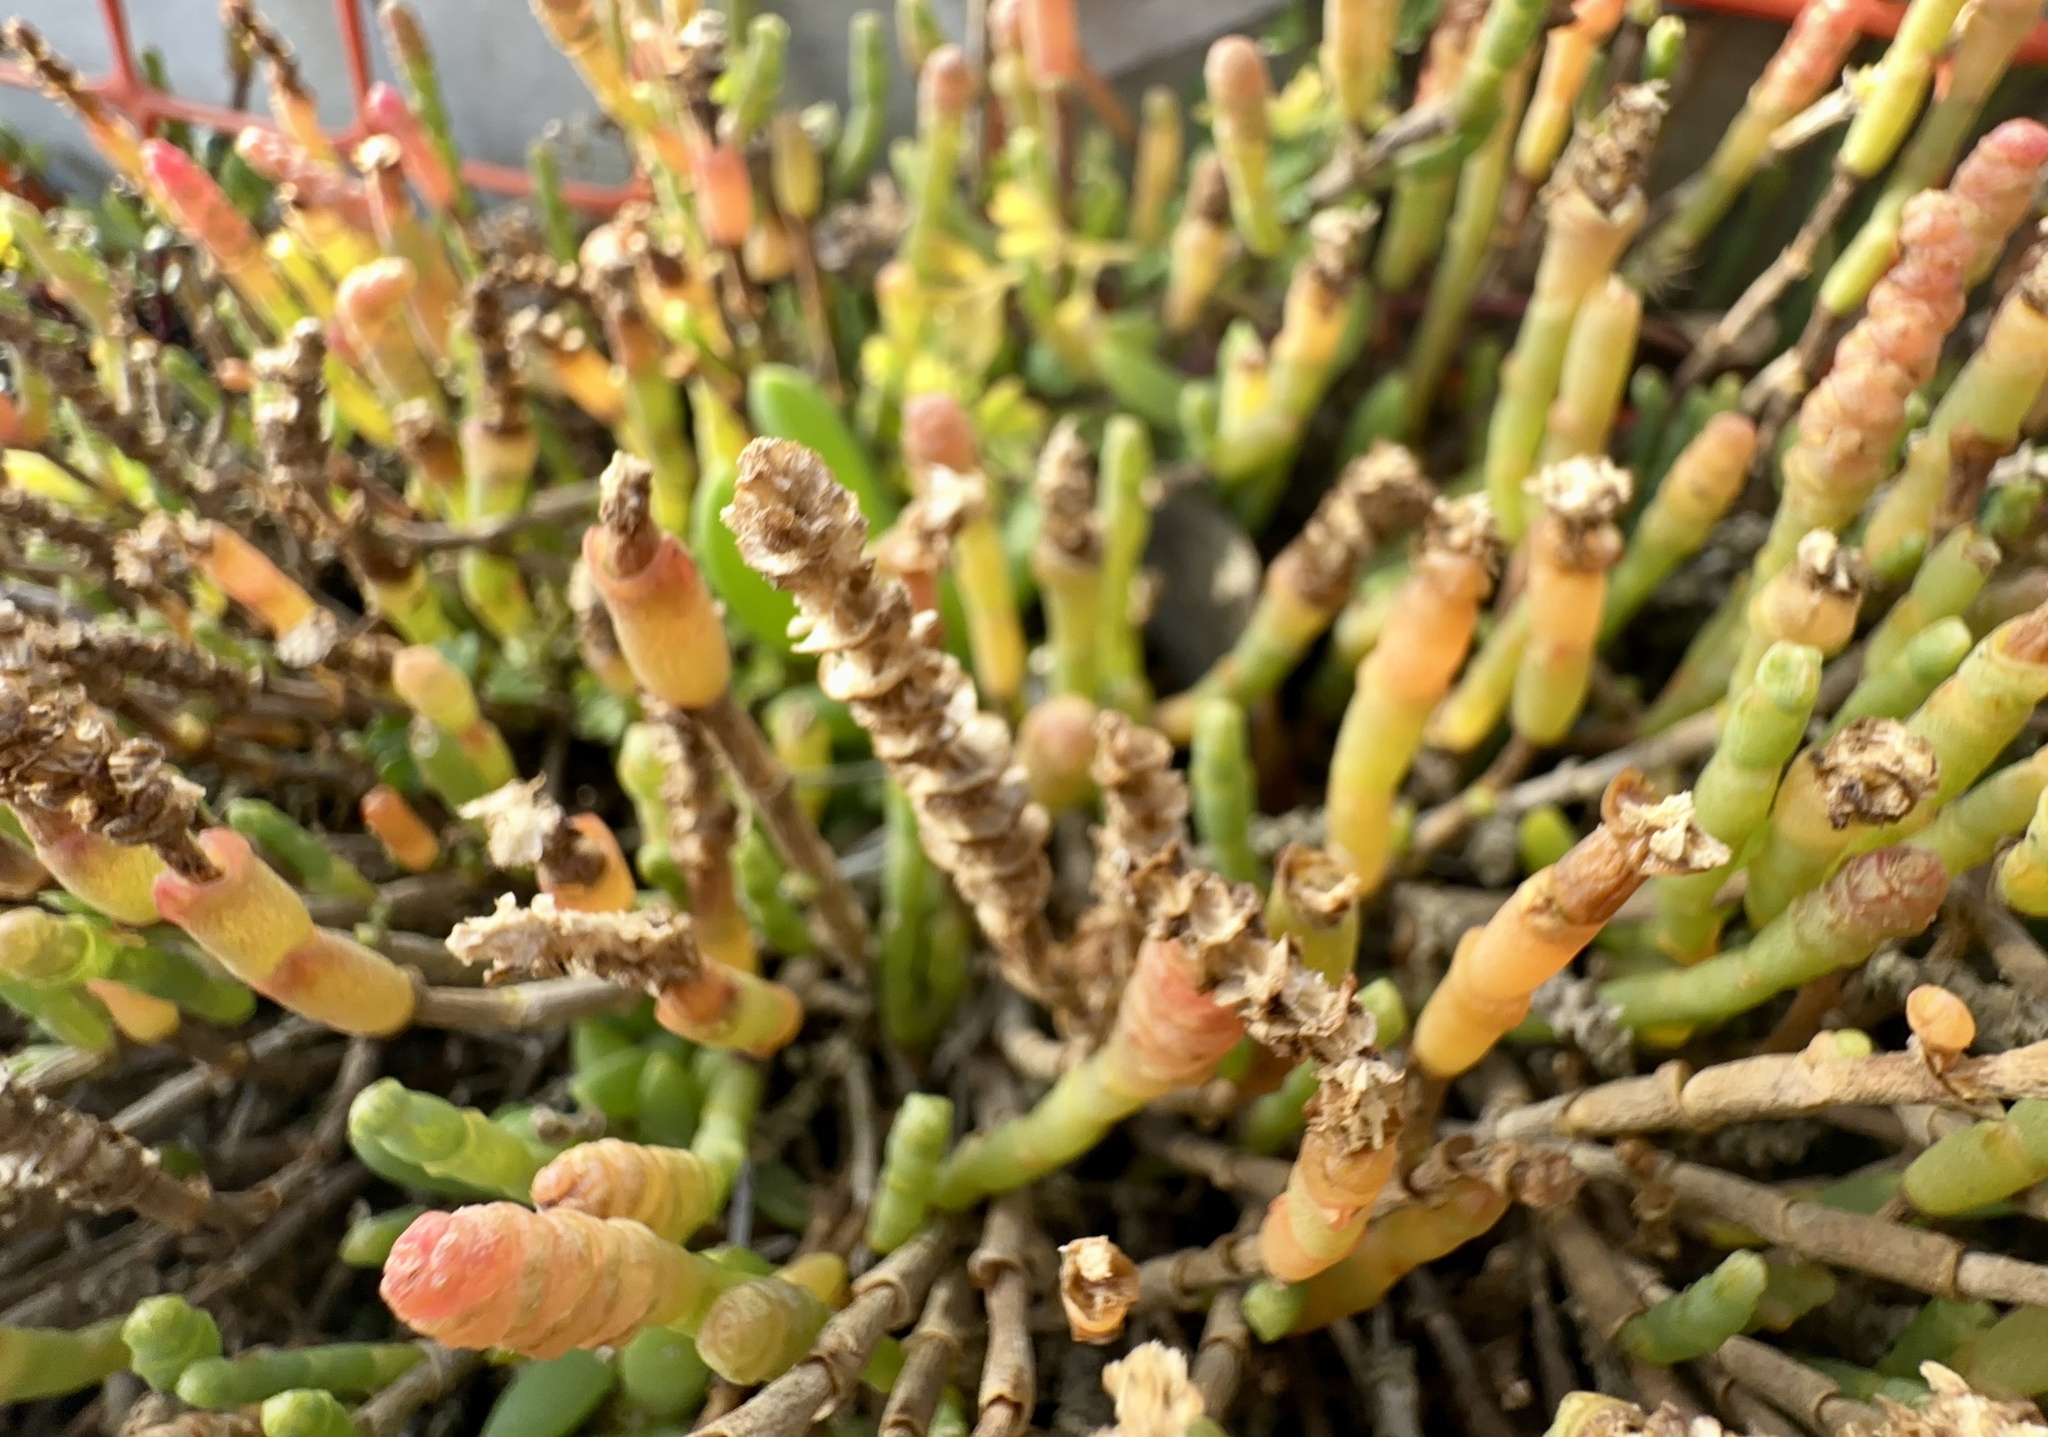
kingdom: Plantae
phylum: Tracheophyta
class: Magnoliopsida
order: Caryophyllales
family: Amaranthaceae
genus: Salicornia
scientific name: Salicornia quinqueflora
